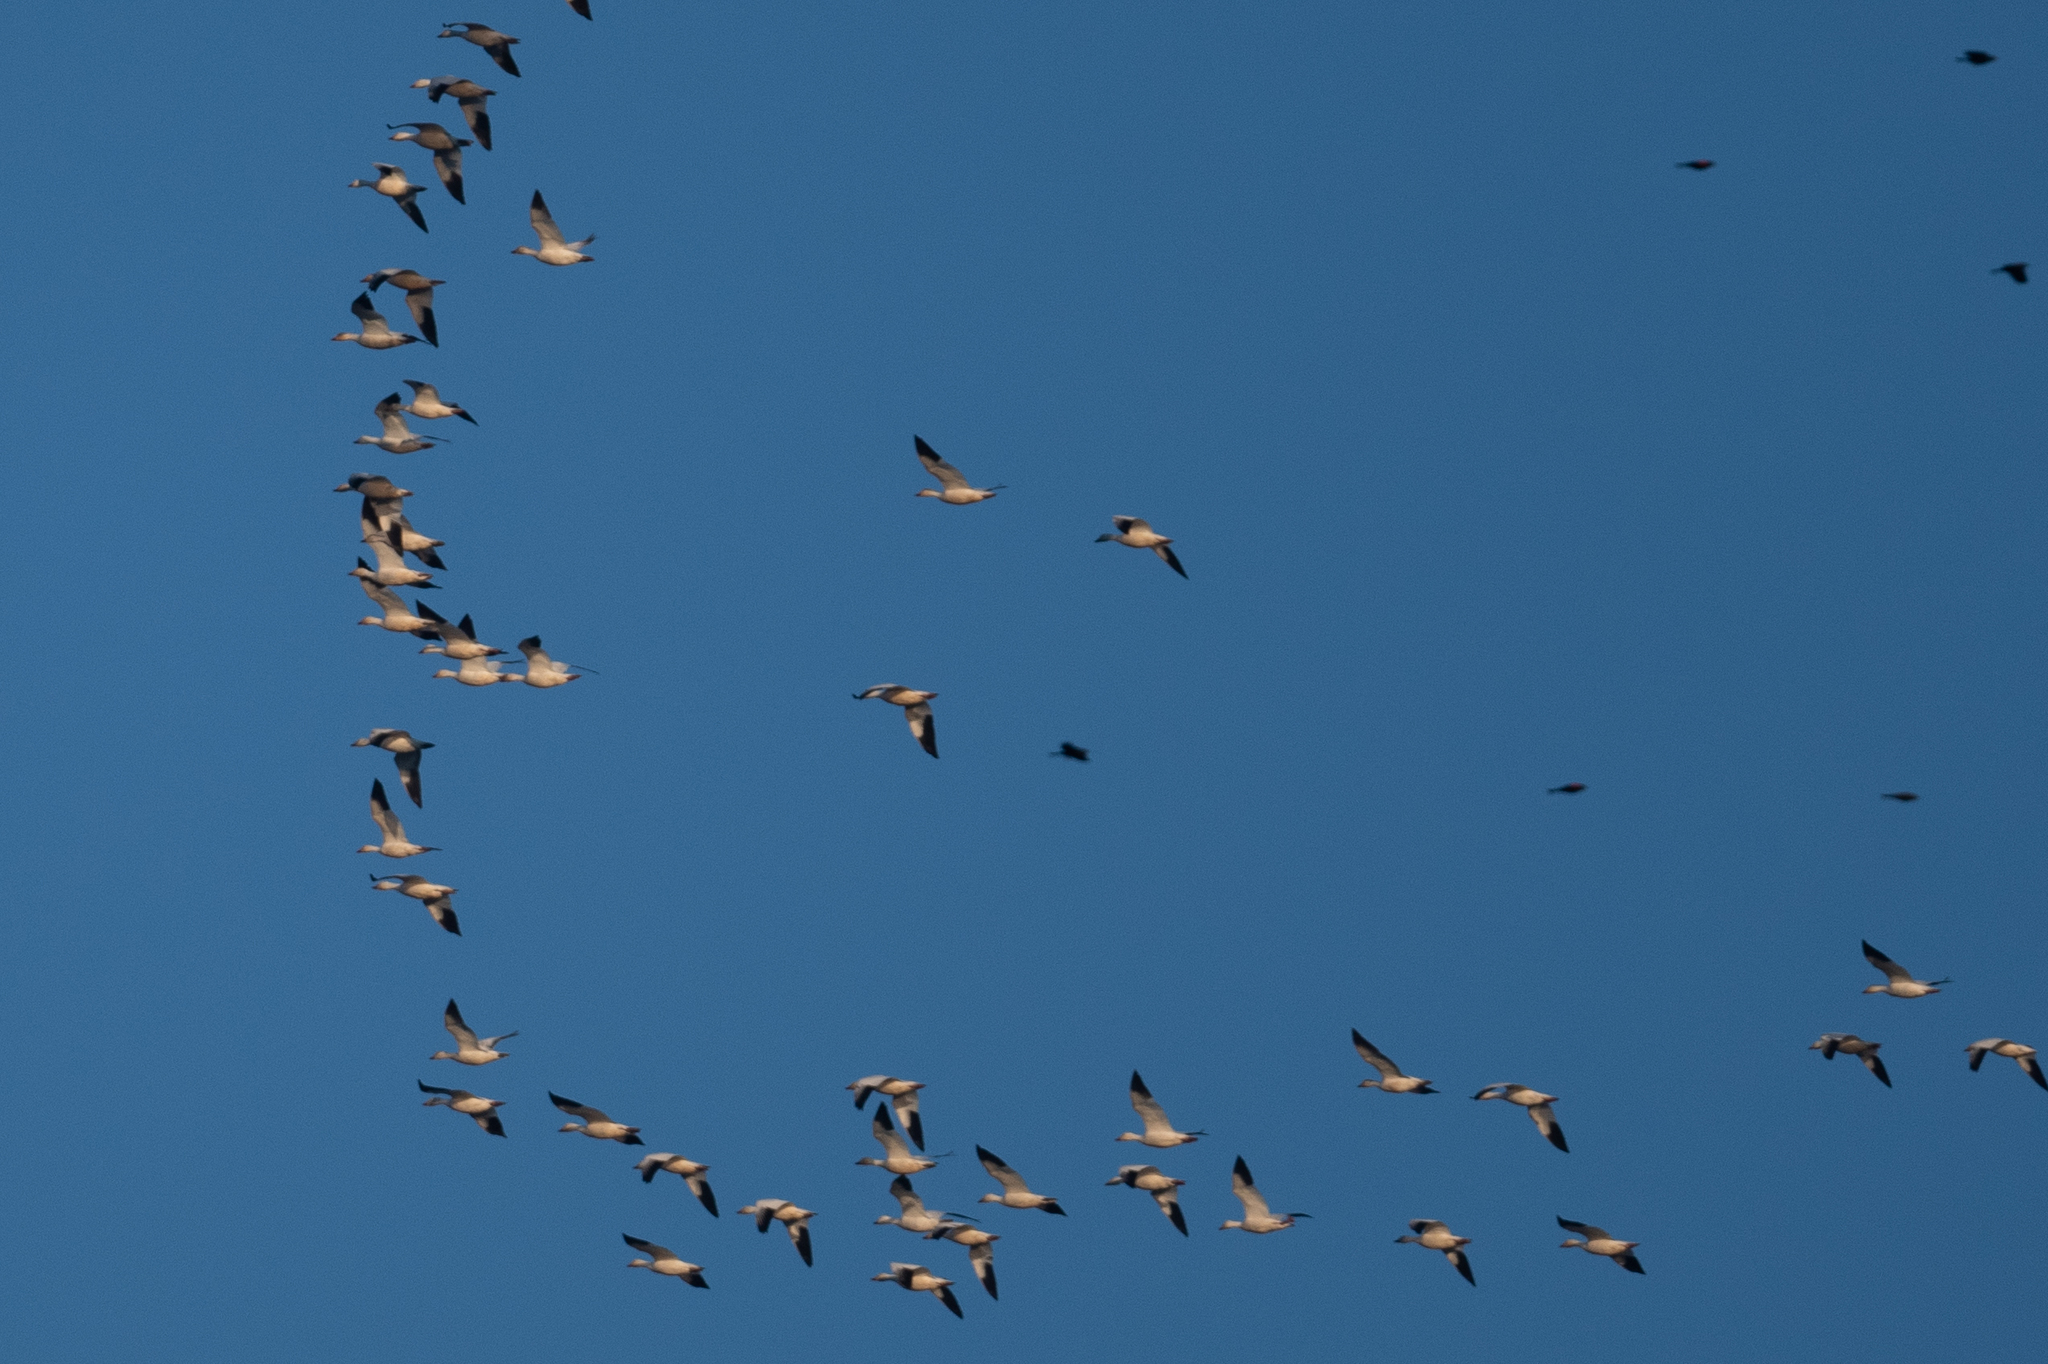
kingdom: Animalia
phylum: Chordata
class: Aves
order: Anseriformes
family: Anatidae
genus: Anser
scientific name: Anser caerulescens
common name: Snow goose
